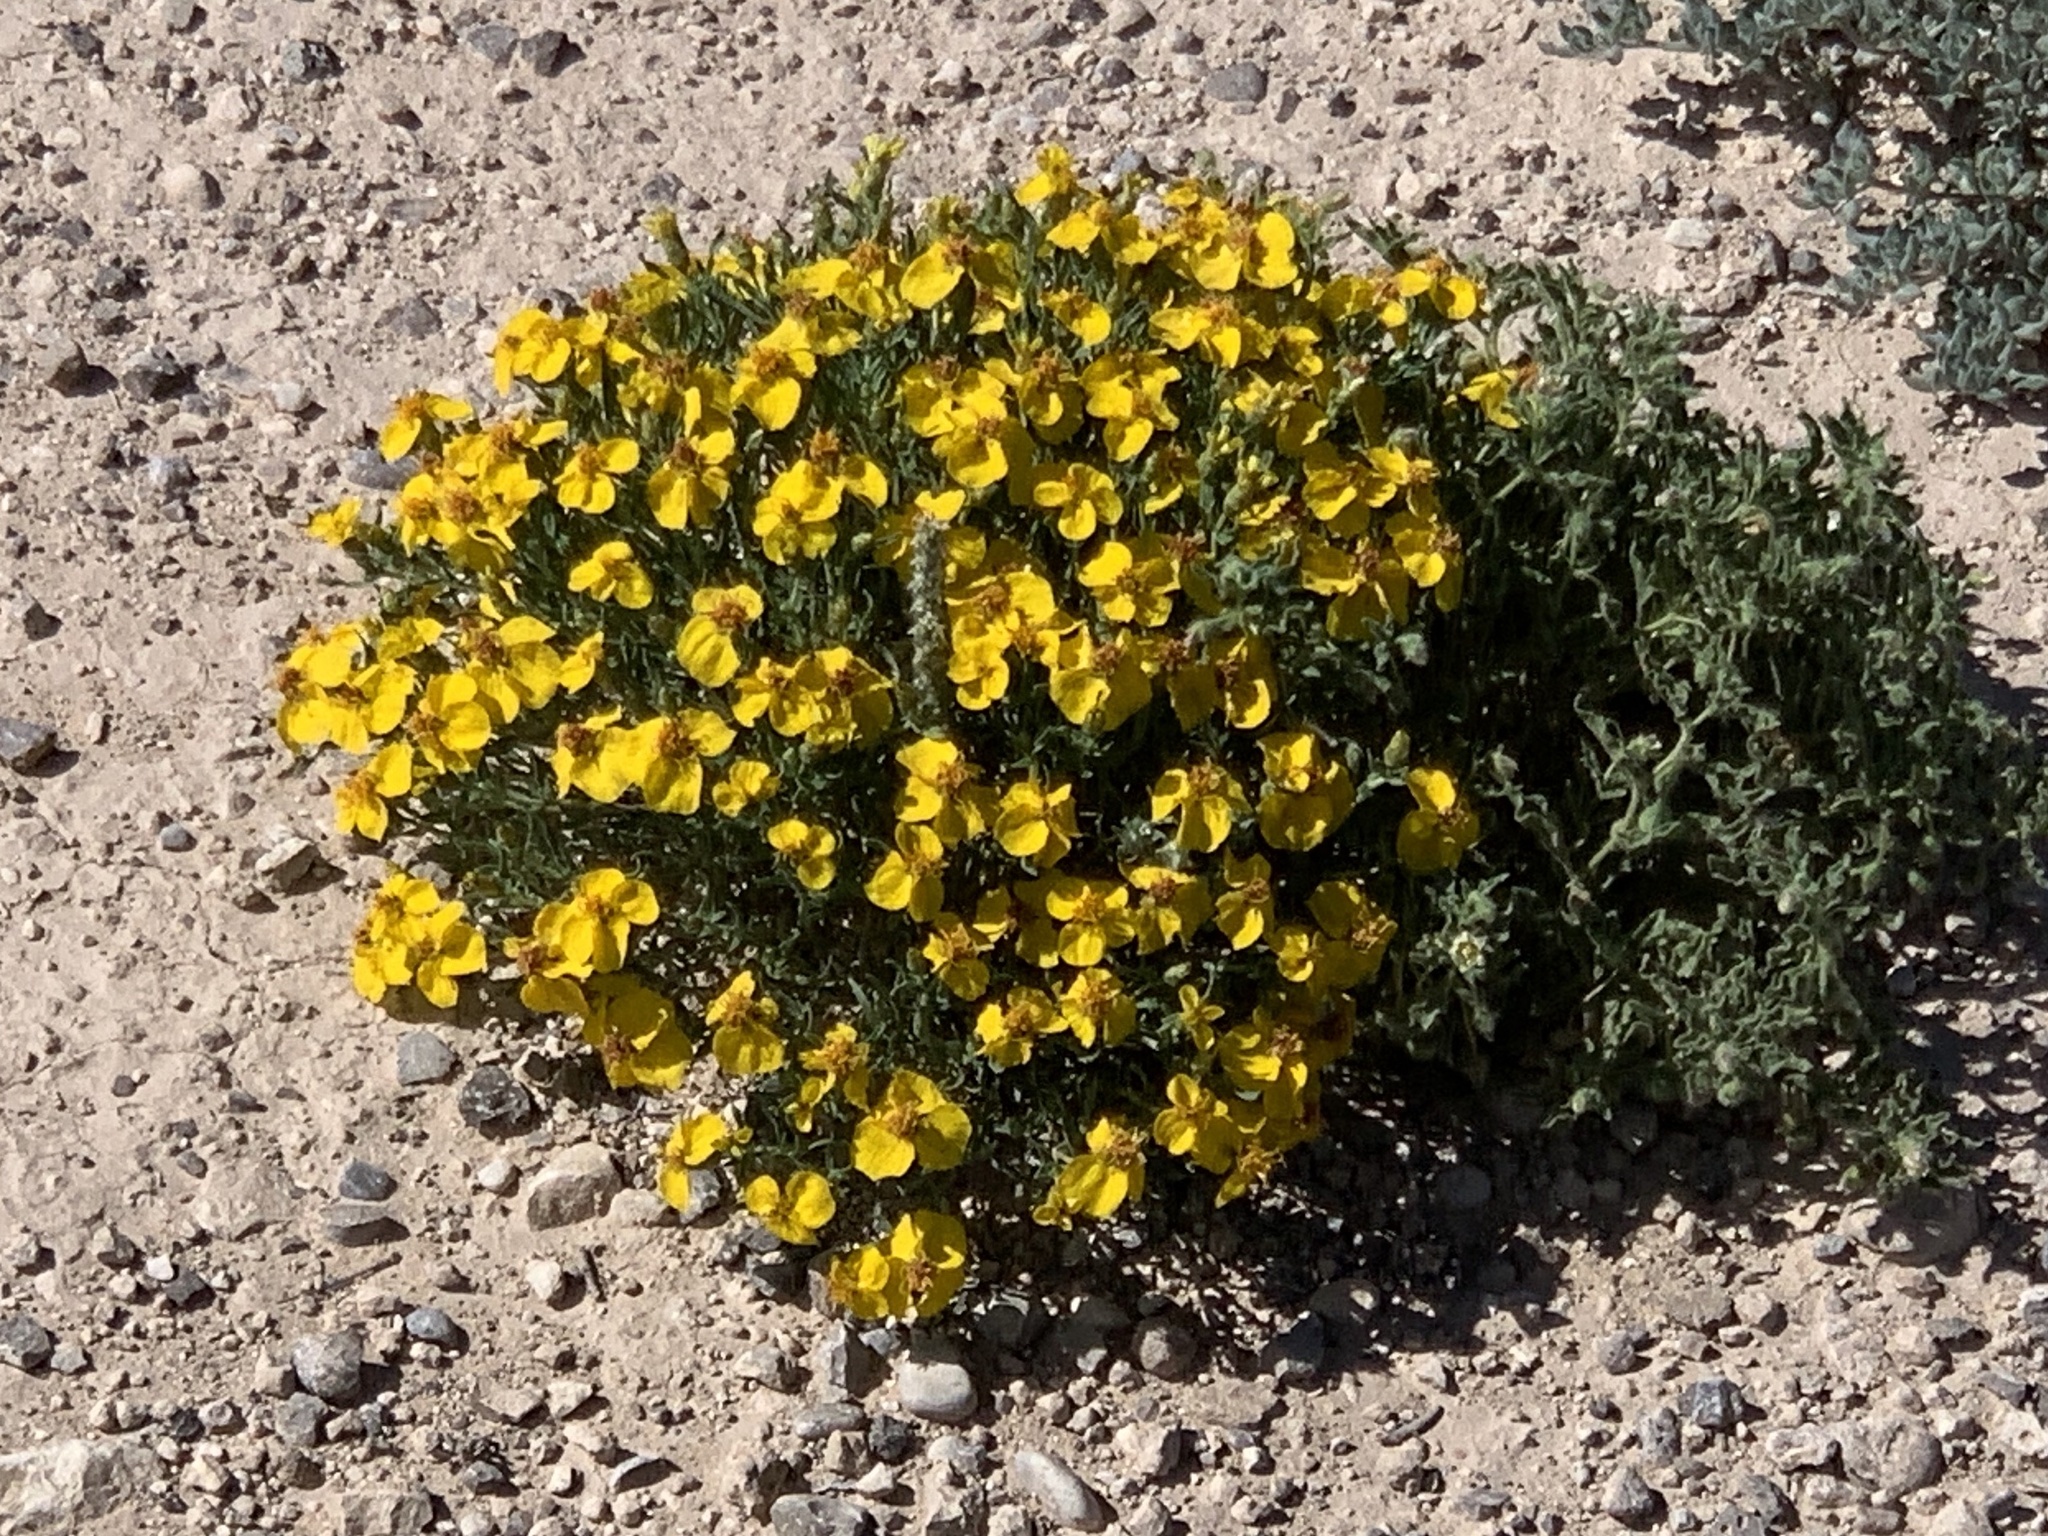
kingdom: Plantae
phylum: Tracheophyta
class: Magnoliopsida
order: Asterales
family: Asteraceae
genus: Zinnia
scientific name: Zinnia grandiflora
